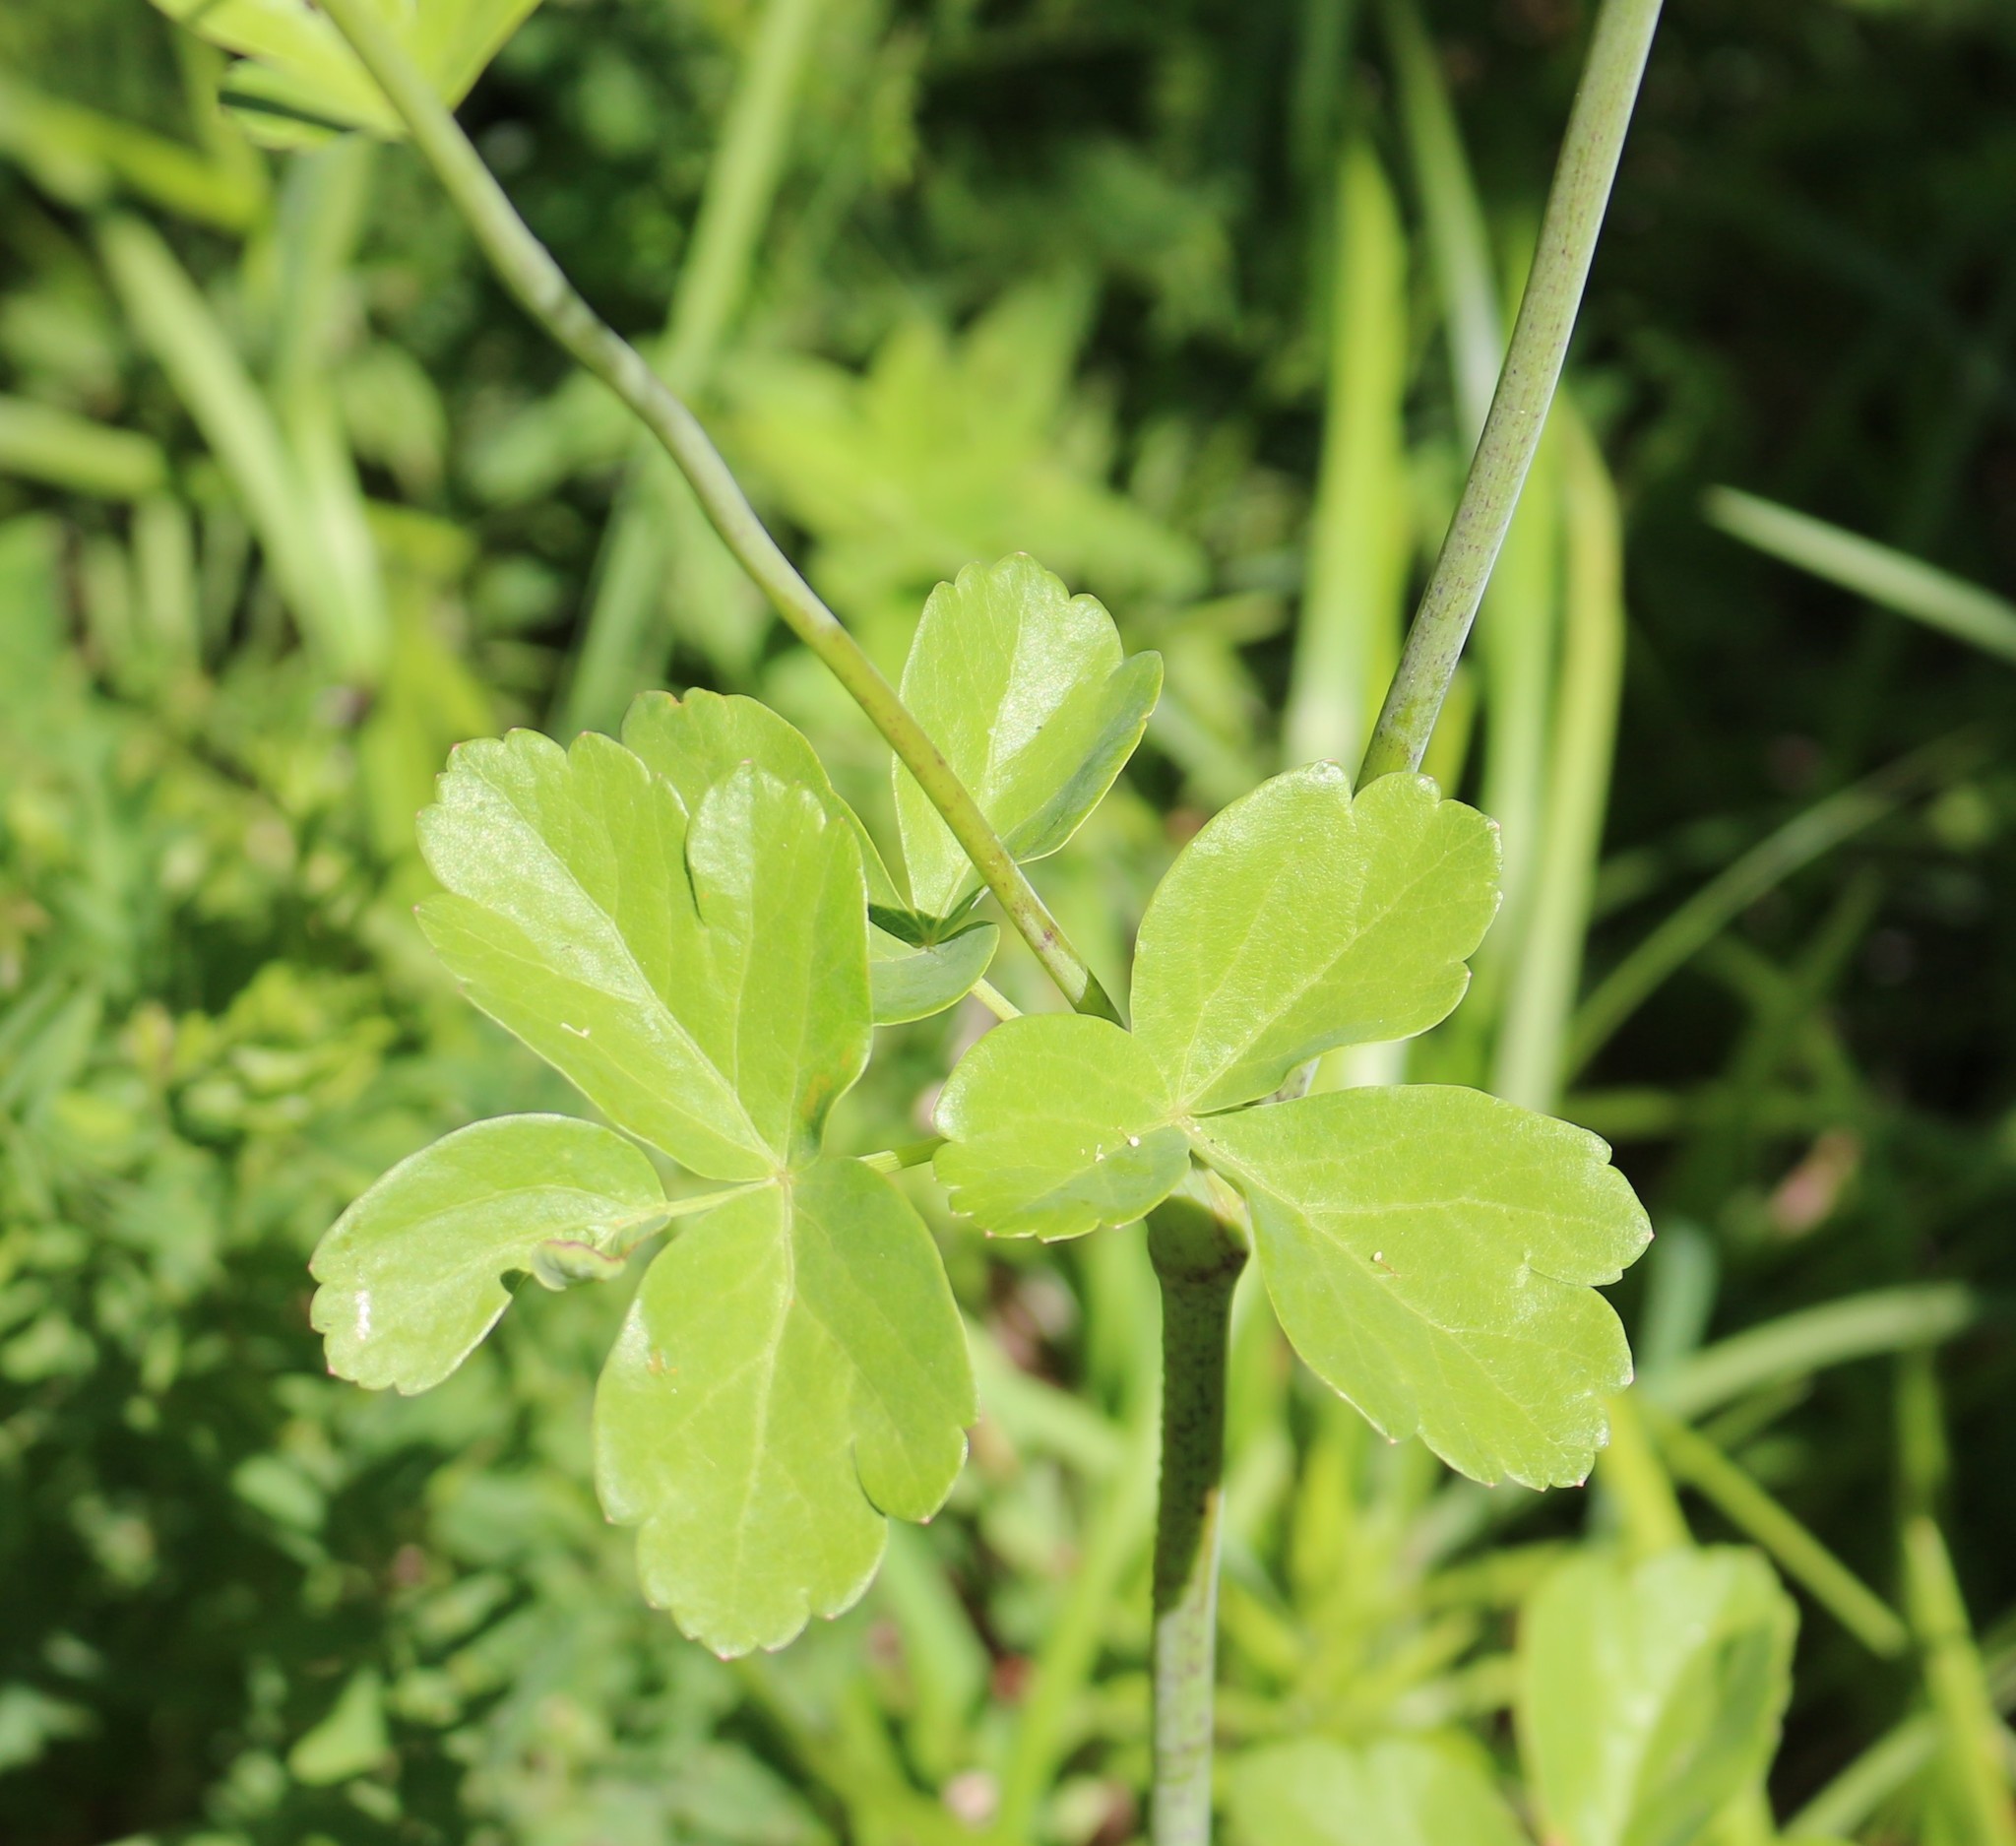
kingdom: Plantae
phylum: Tracheophyta
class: Magnoliopsida
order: Apiales
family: Apiaceae
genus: Laser
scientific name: Laser trilobum
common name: Laser
